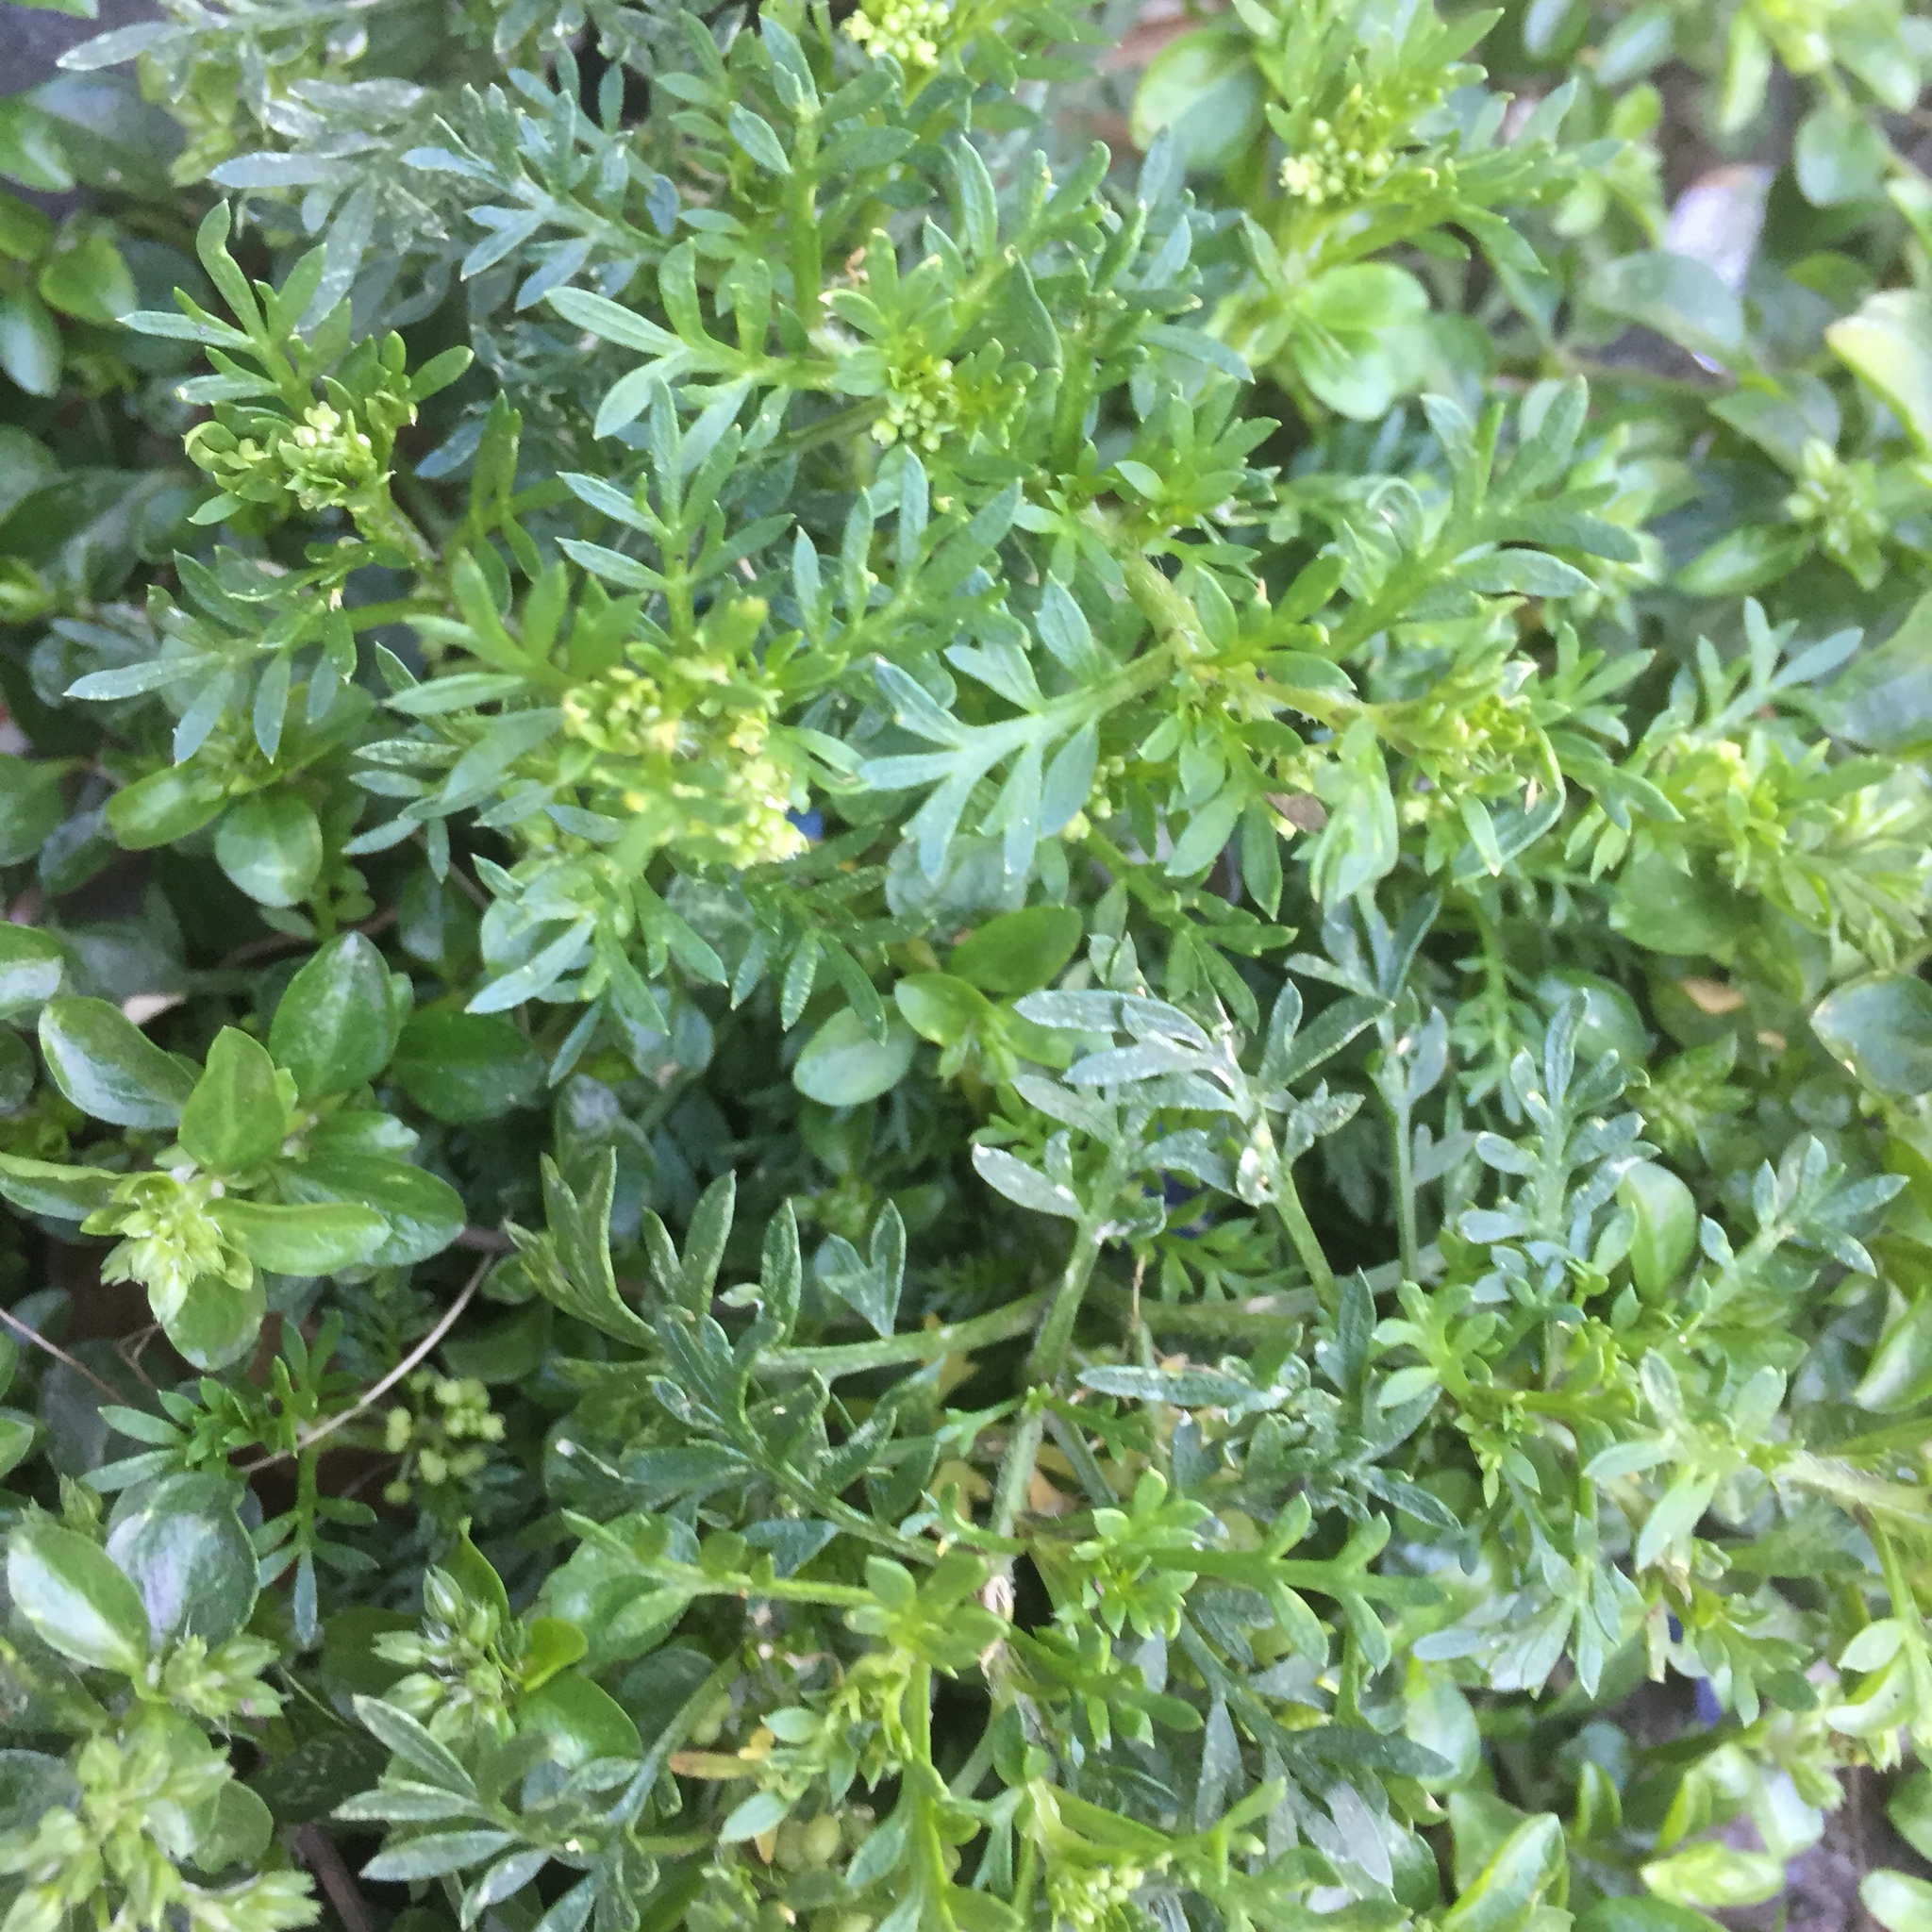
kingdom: Plantae
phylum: Tracheophyta
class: Magnoliopsida
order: Brassicales
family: Brassicaceae
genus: Lepidium
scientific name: Lepidium didymum
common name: Lesser swinecress
